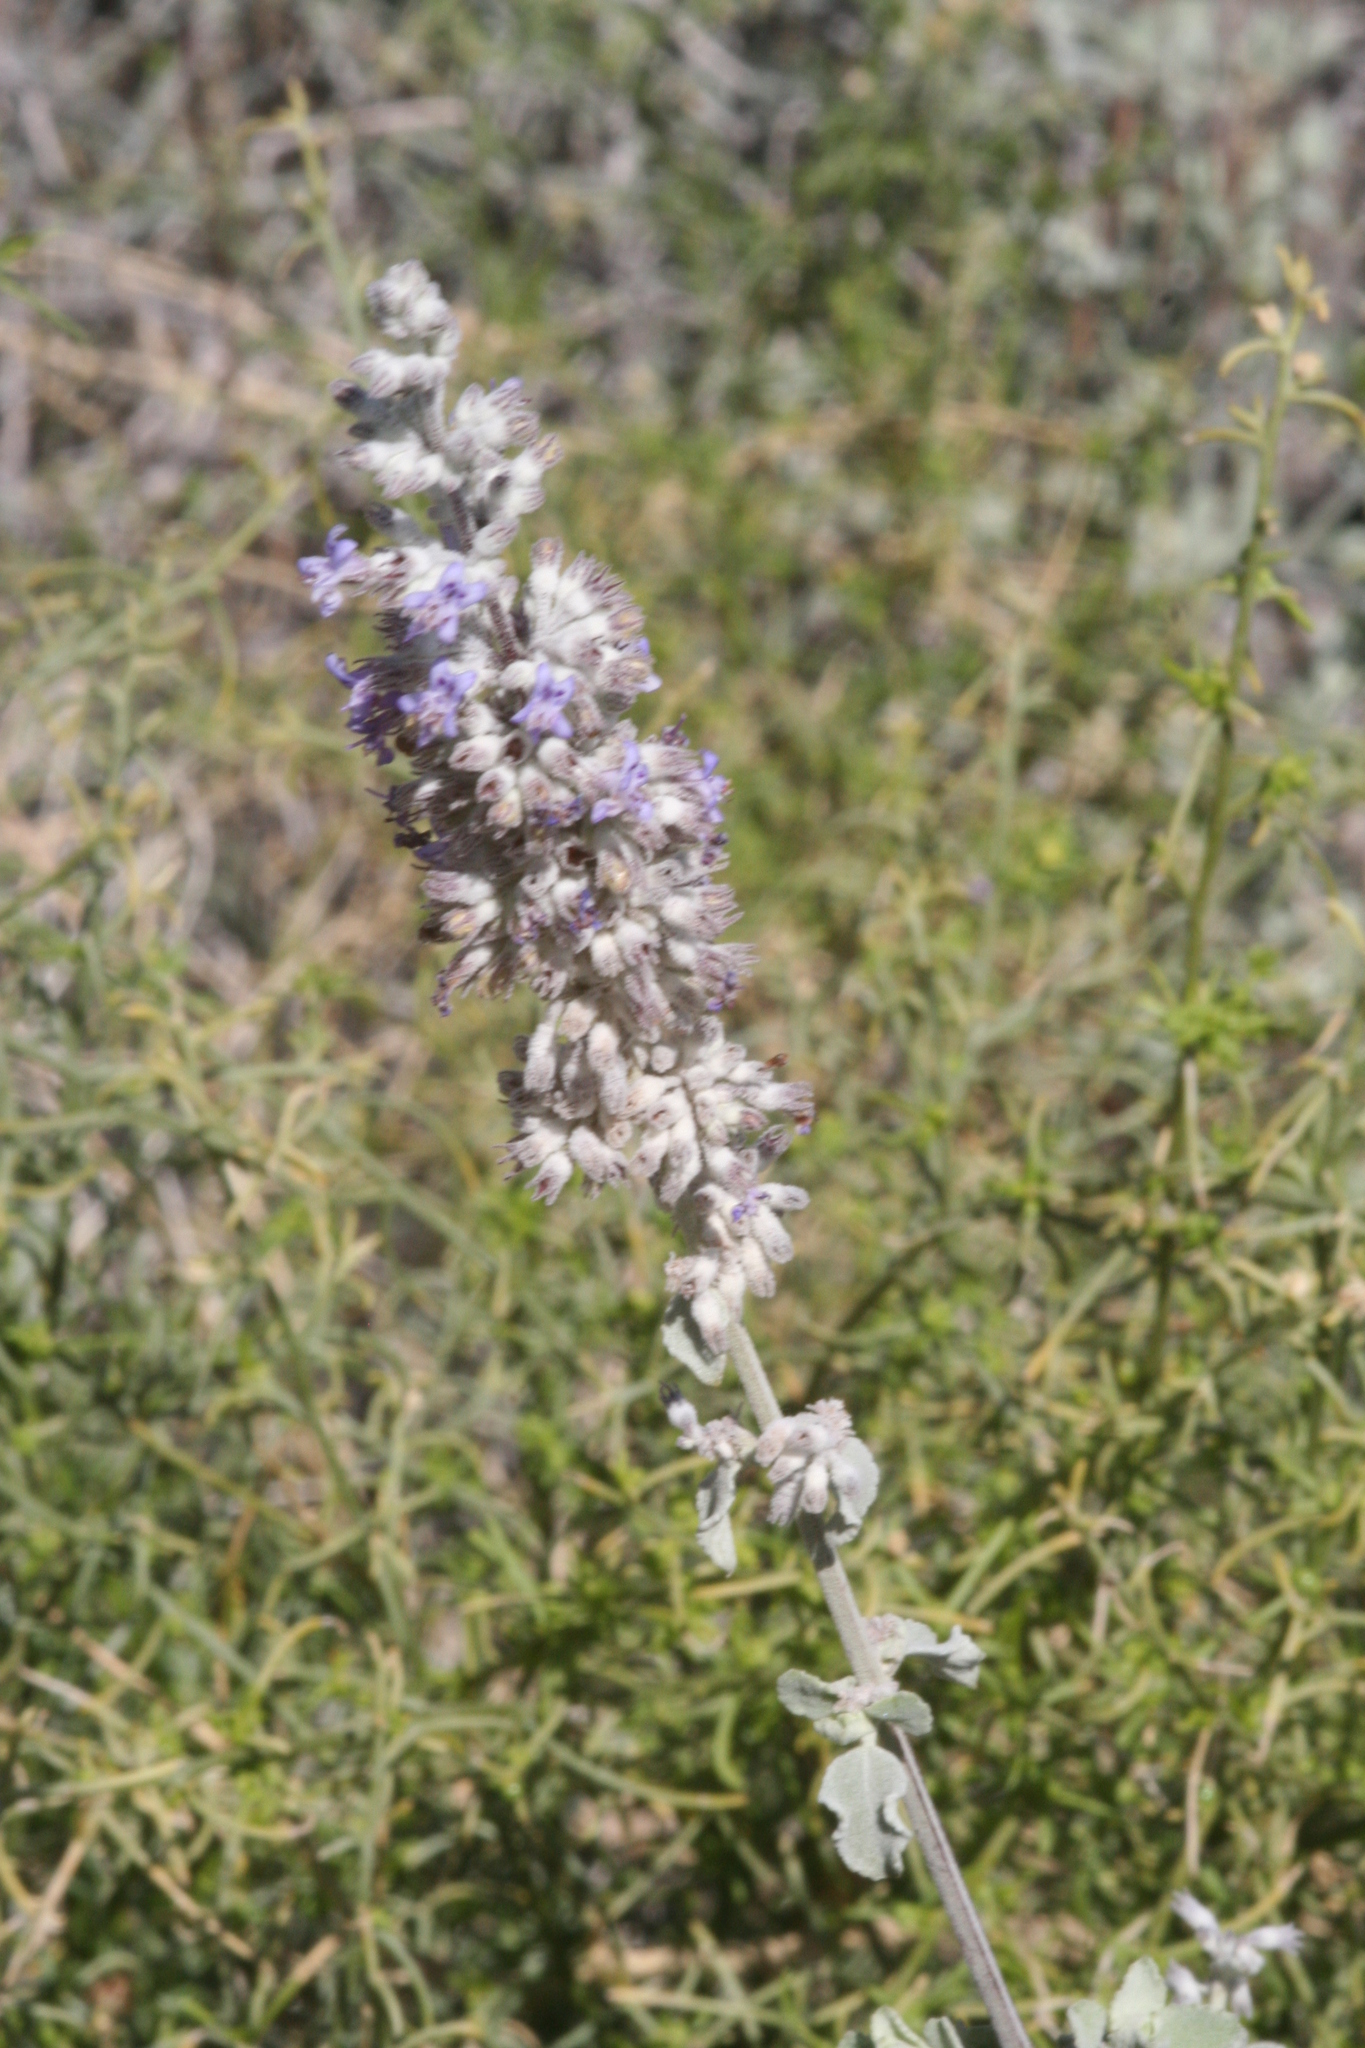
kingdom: Plantae
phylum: Tracheophyta
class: Magnoliopsida
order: Lamiales
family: Lamiaceae
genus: Condea
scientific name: Condea emoryi
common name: Chia
